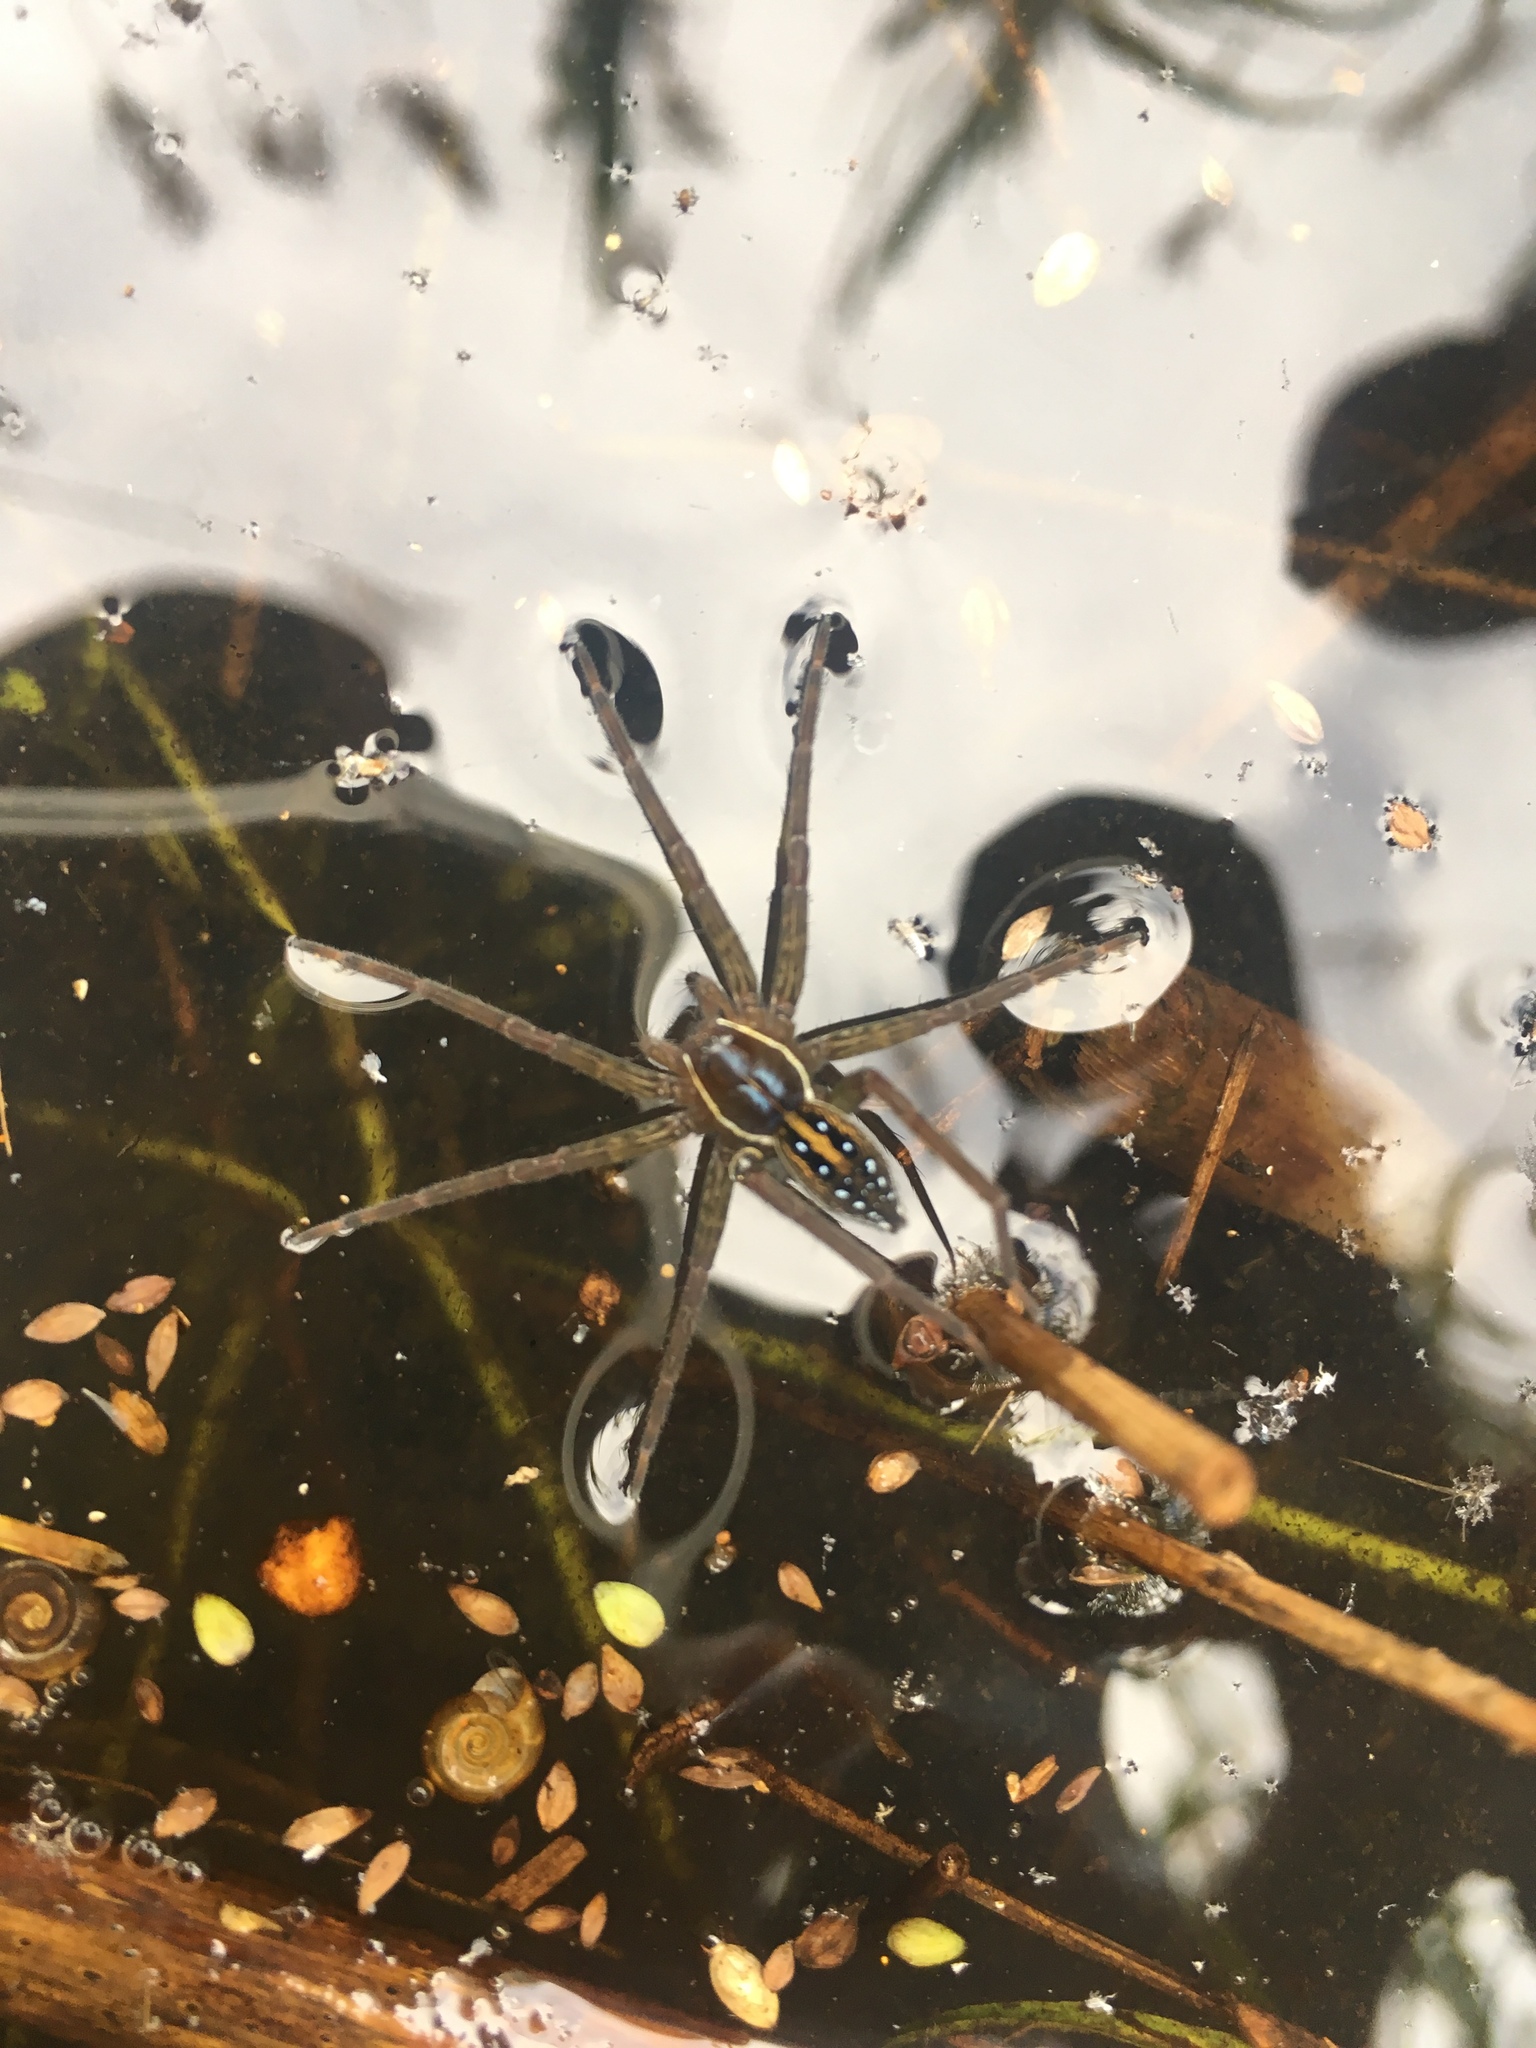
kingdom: Animalia
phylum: Arthropoda
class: Arachnida
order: Araneae
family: Pisauridae
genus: Dolomedes
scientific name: Dolomedes triton
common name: Six-spotted fishing spider
